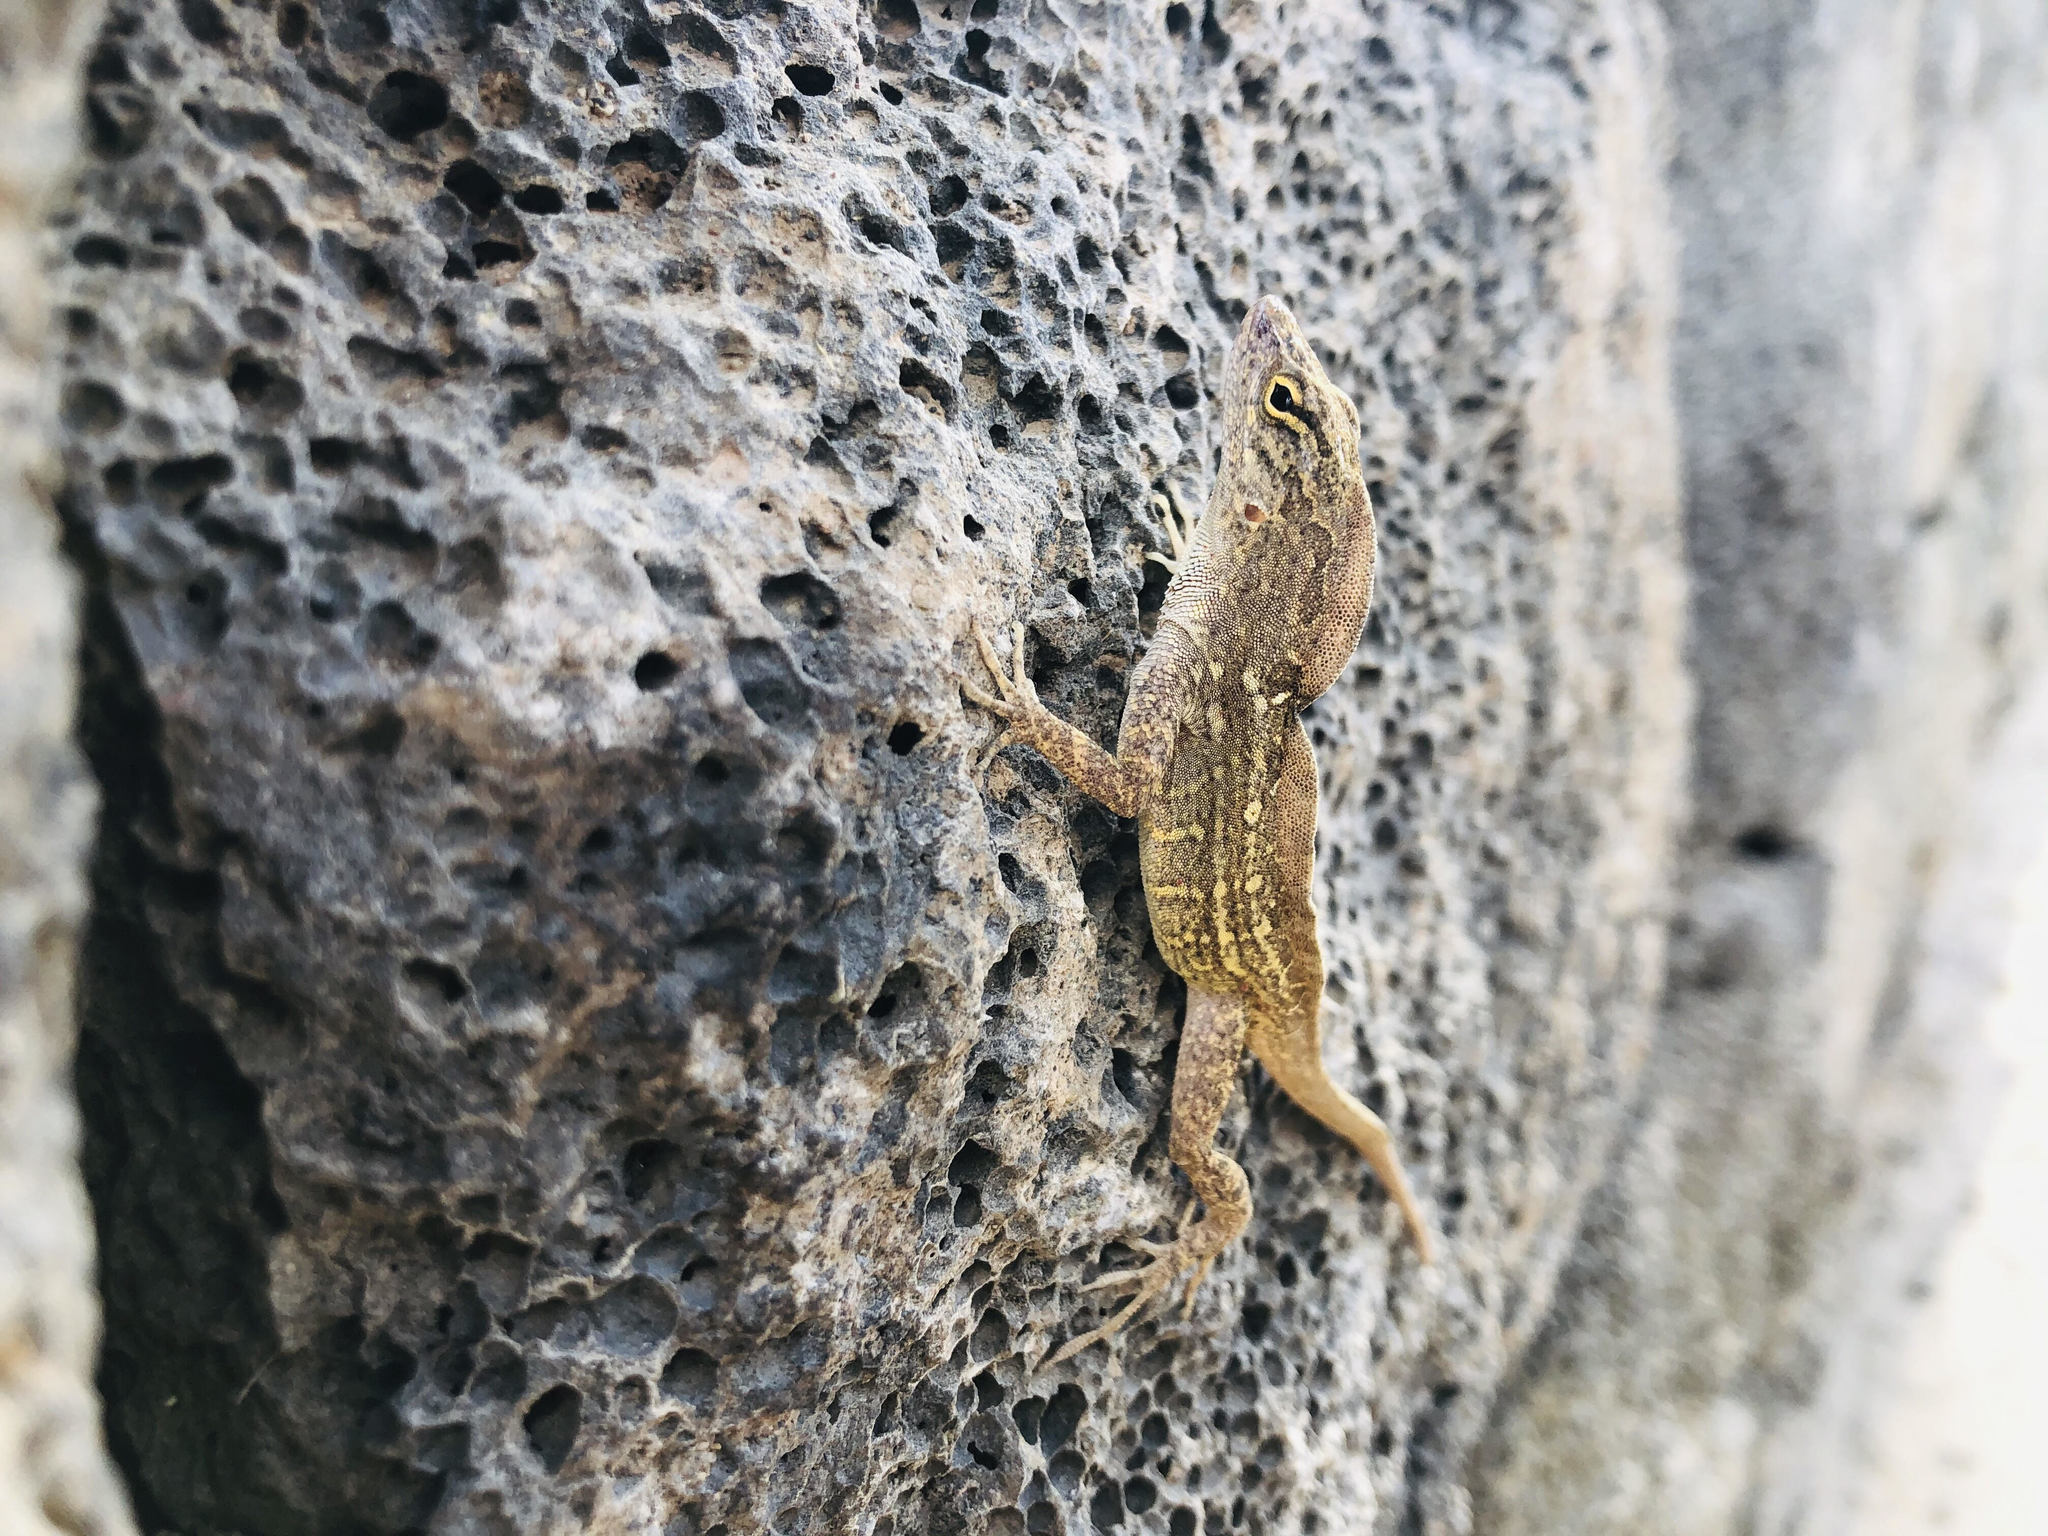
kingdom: Animalia
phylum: Chordata
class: Squamata
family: Dactyloidae
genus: Anolis
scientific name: Anolis sagrei
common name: Brown anole
